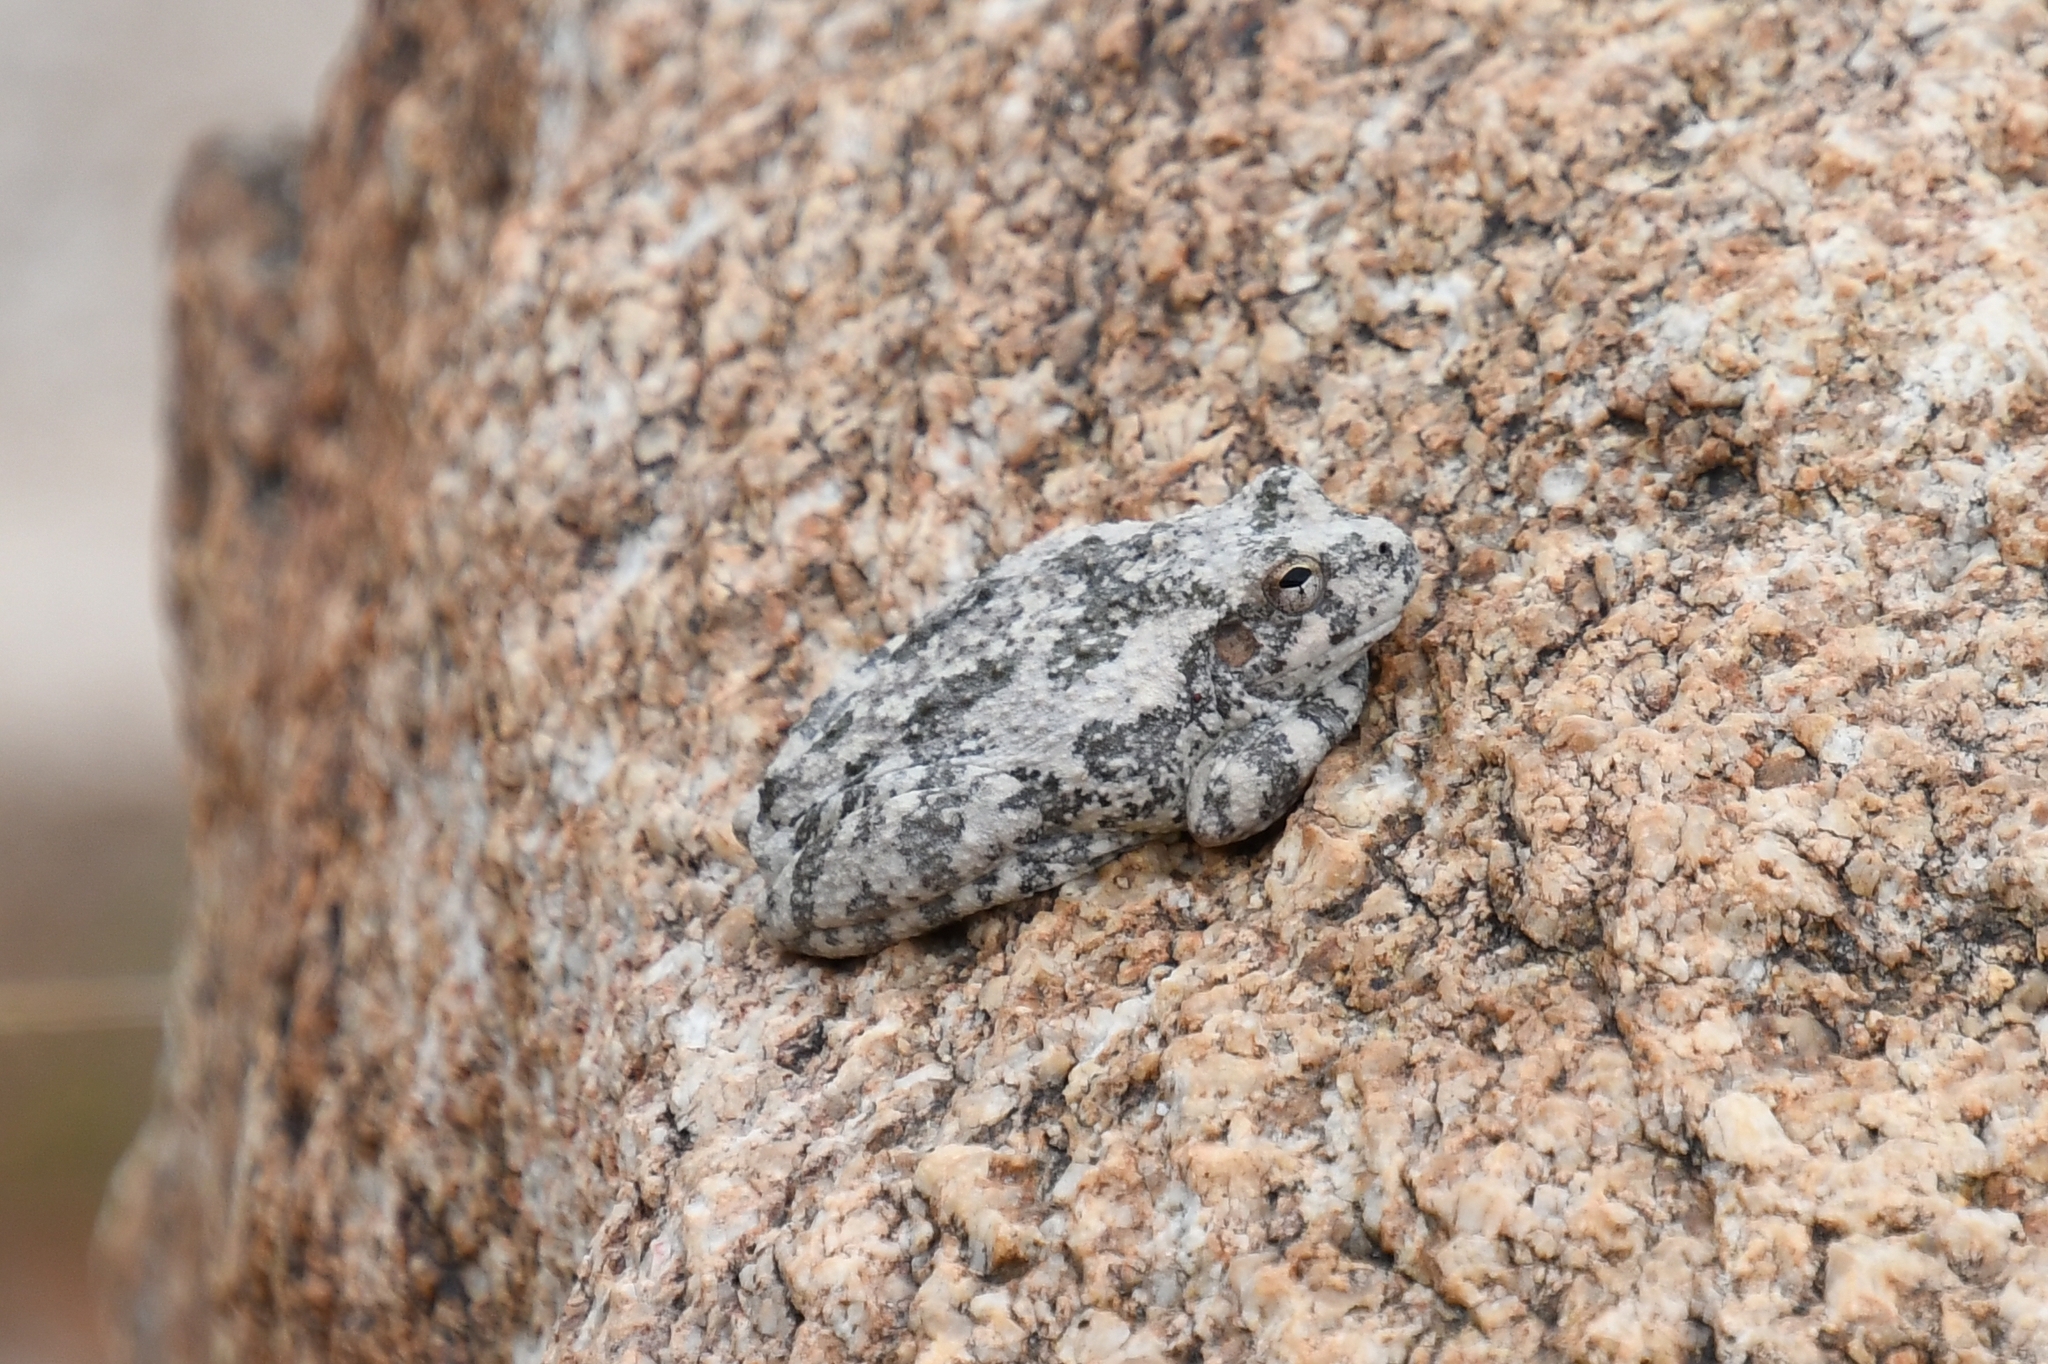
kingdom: Animalia
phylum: Chordata
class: Amphibia
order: Anura
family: Hylidae
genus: Dryophytes
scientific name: Dryophytes arenicolor
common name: Canyon treefrog
